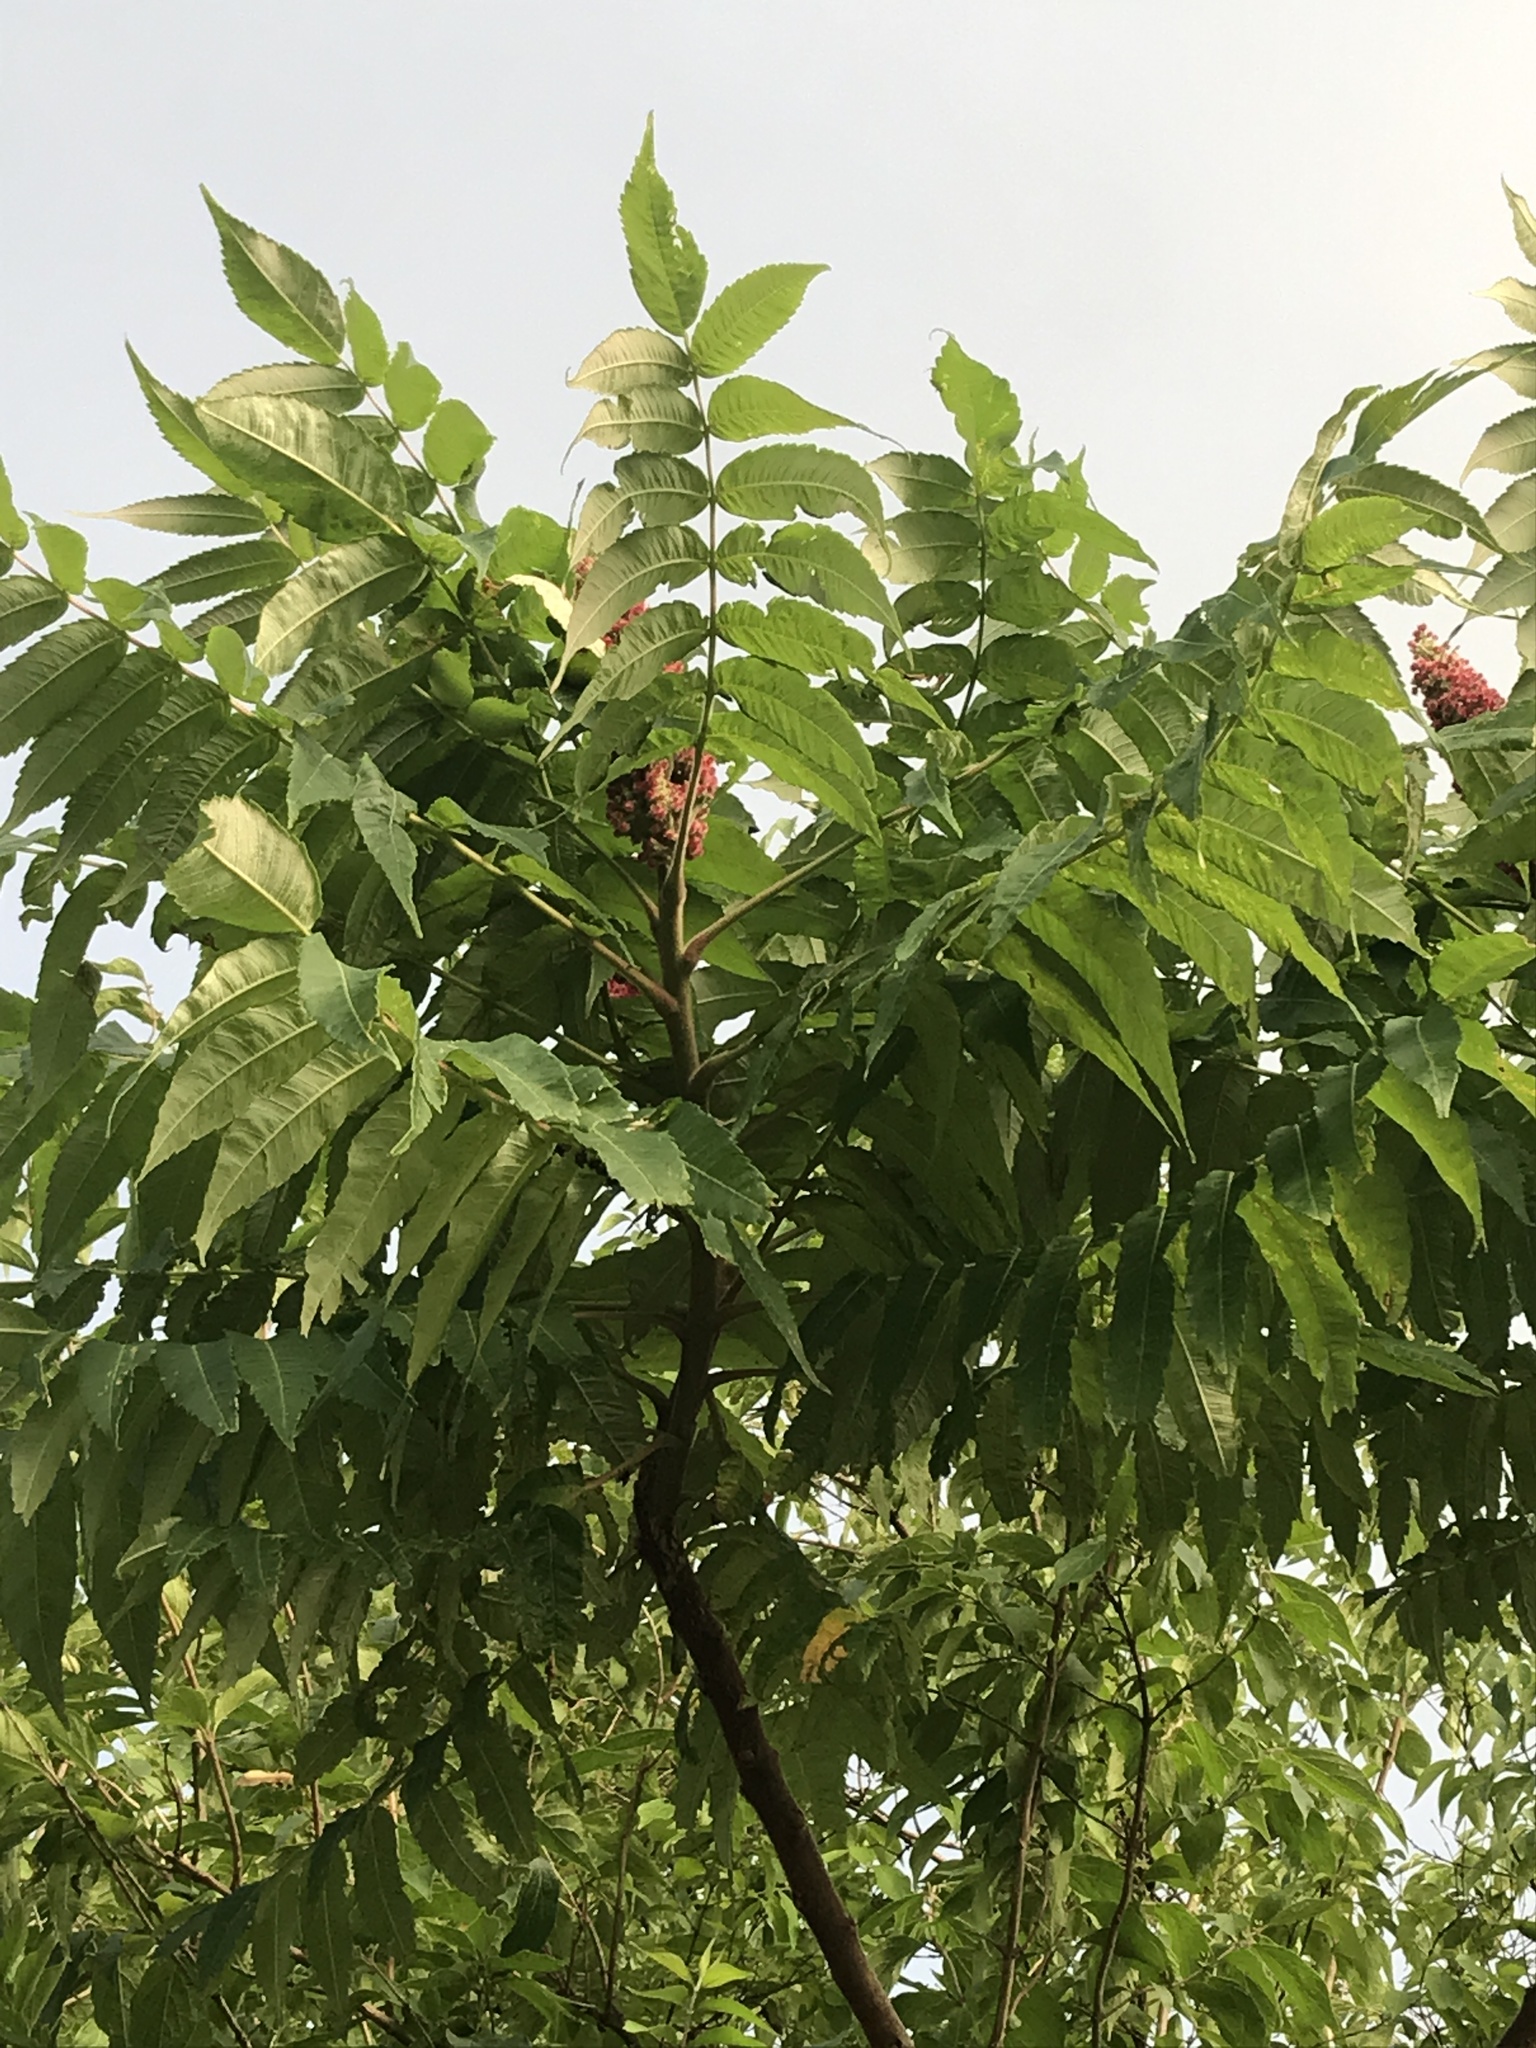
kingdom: Plantae
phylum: Tracheophyta
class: Magnoliopsida
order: Sapindales
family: Anacardiaceae
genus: Rhus
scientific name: Rhus typhina
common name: Staghorn sumac
